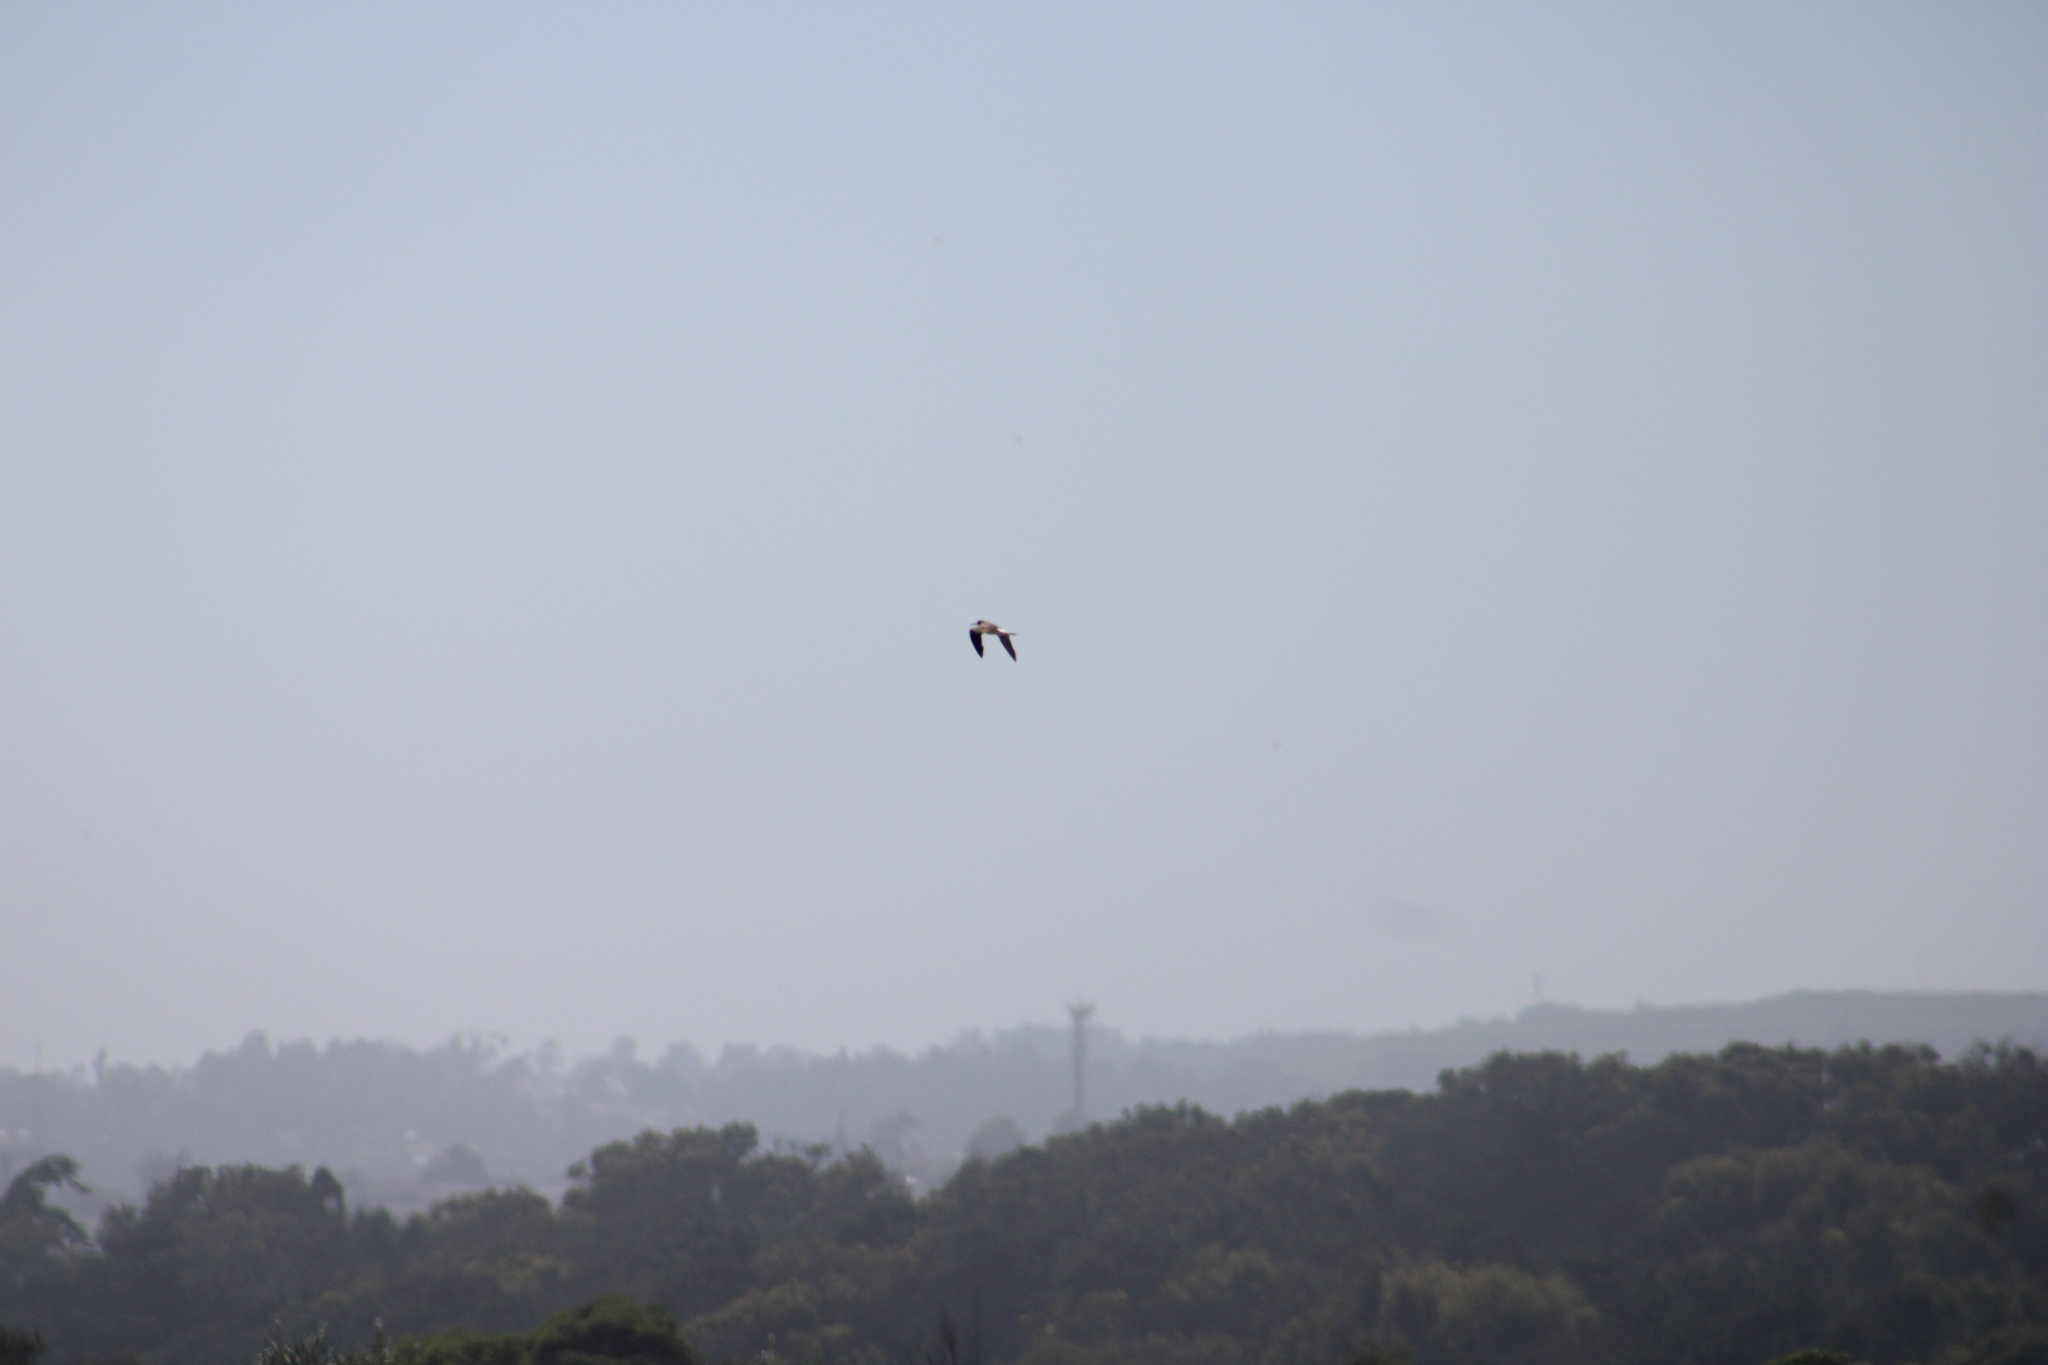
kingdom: Animalia
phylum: Chordata
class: Aves
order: Charadriiformes
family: Scolopacidae
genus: Tringa
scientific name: Tringa flavipes
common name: Lesser yellowlegs
